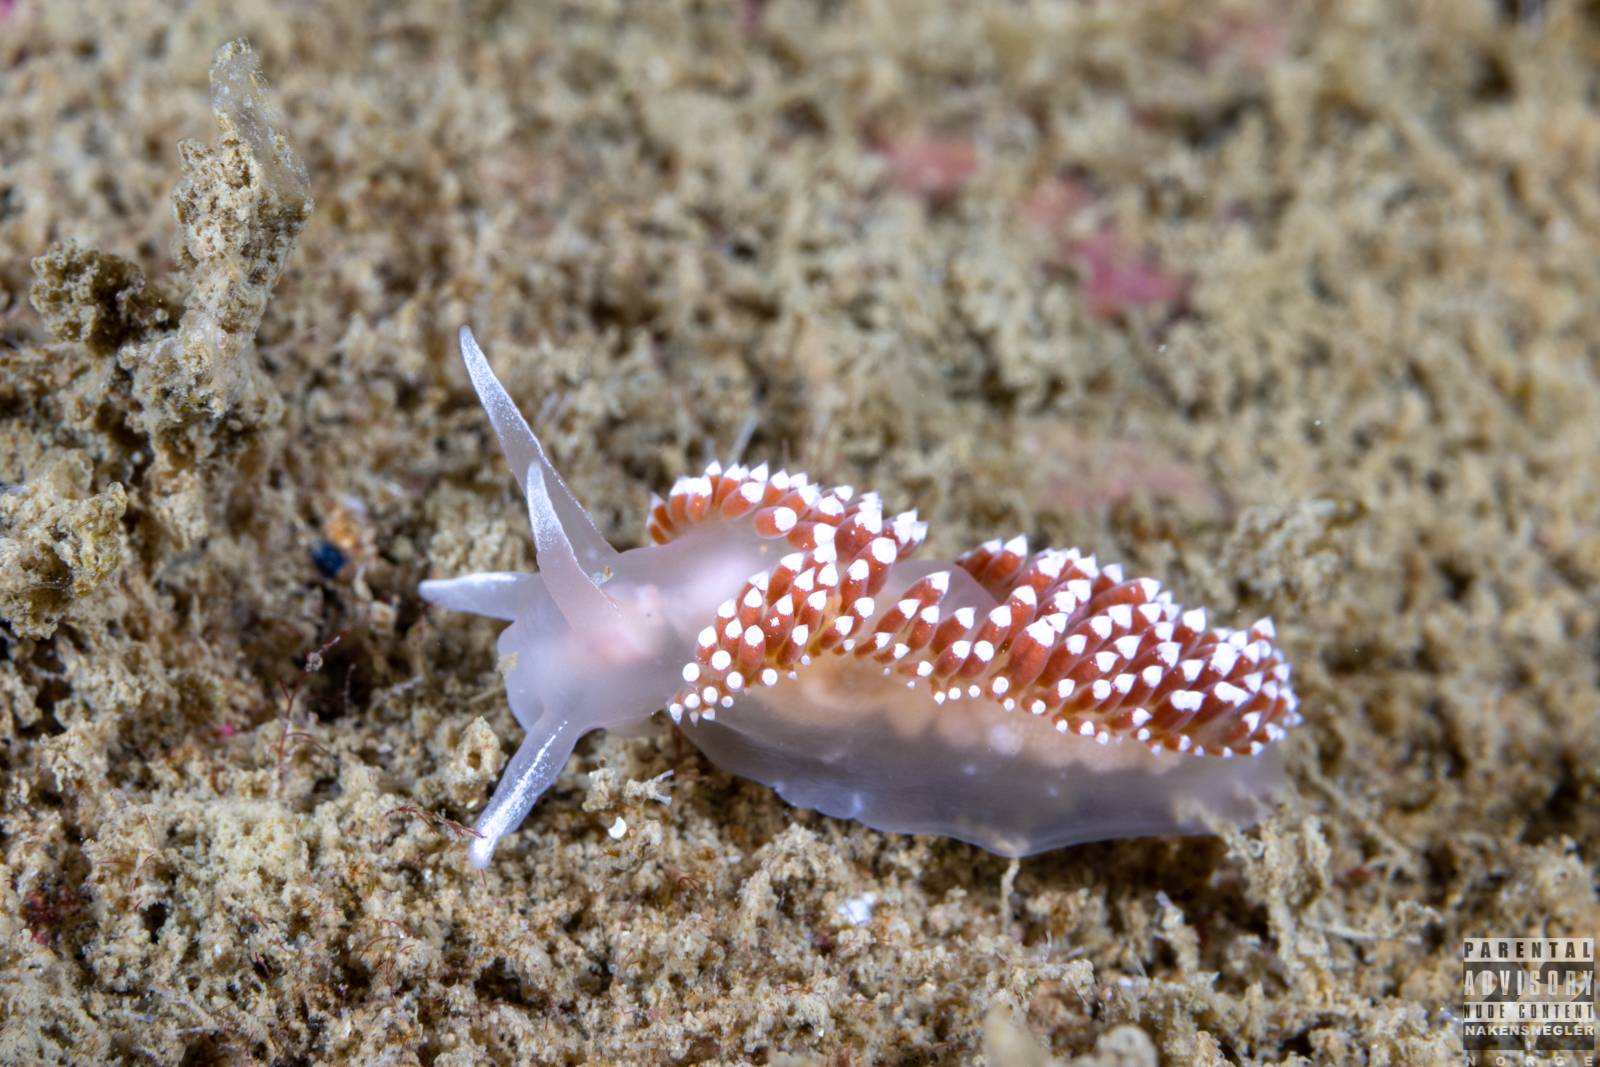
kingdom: Animalia
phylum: Mollusca
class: Gastropoda
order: Nudibranchia
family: Coryphellidae
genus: Coryphella
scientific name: Coryphella verrucosa
